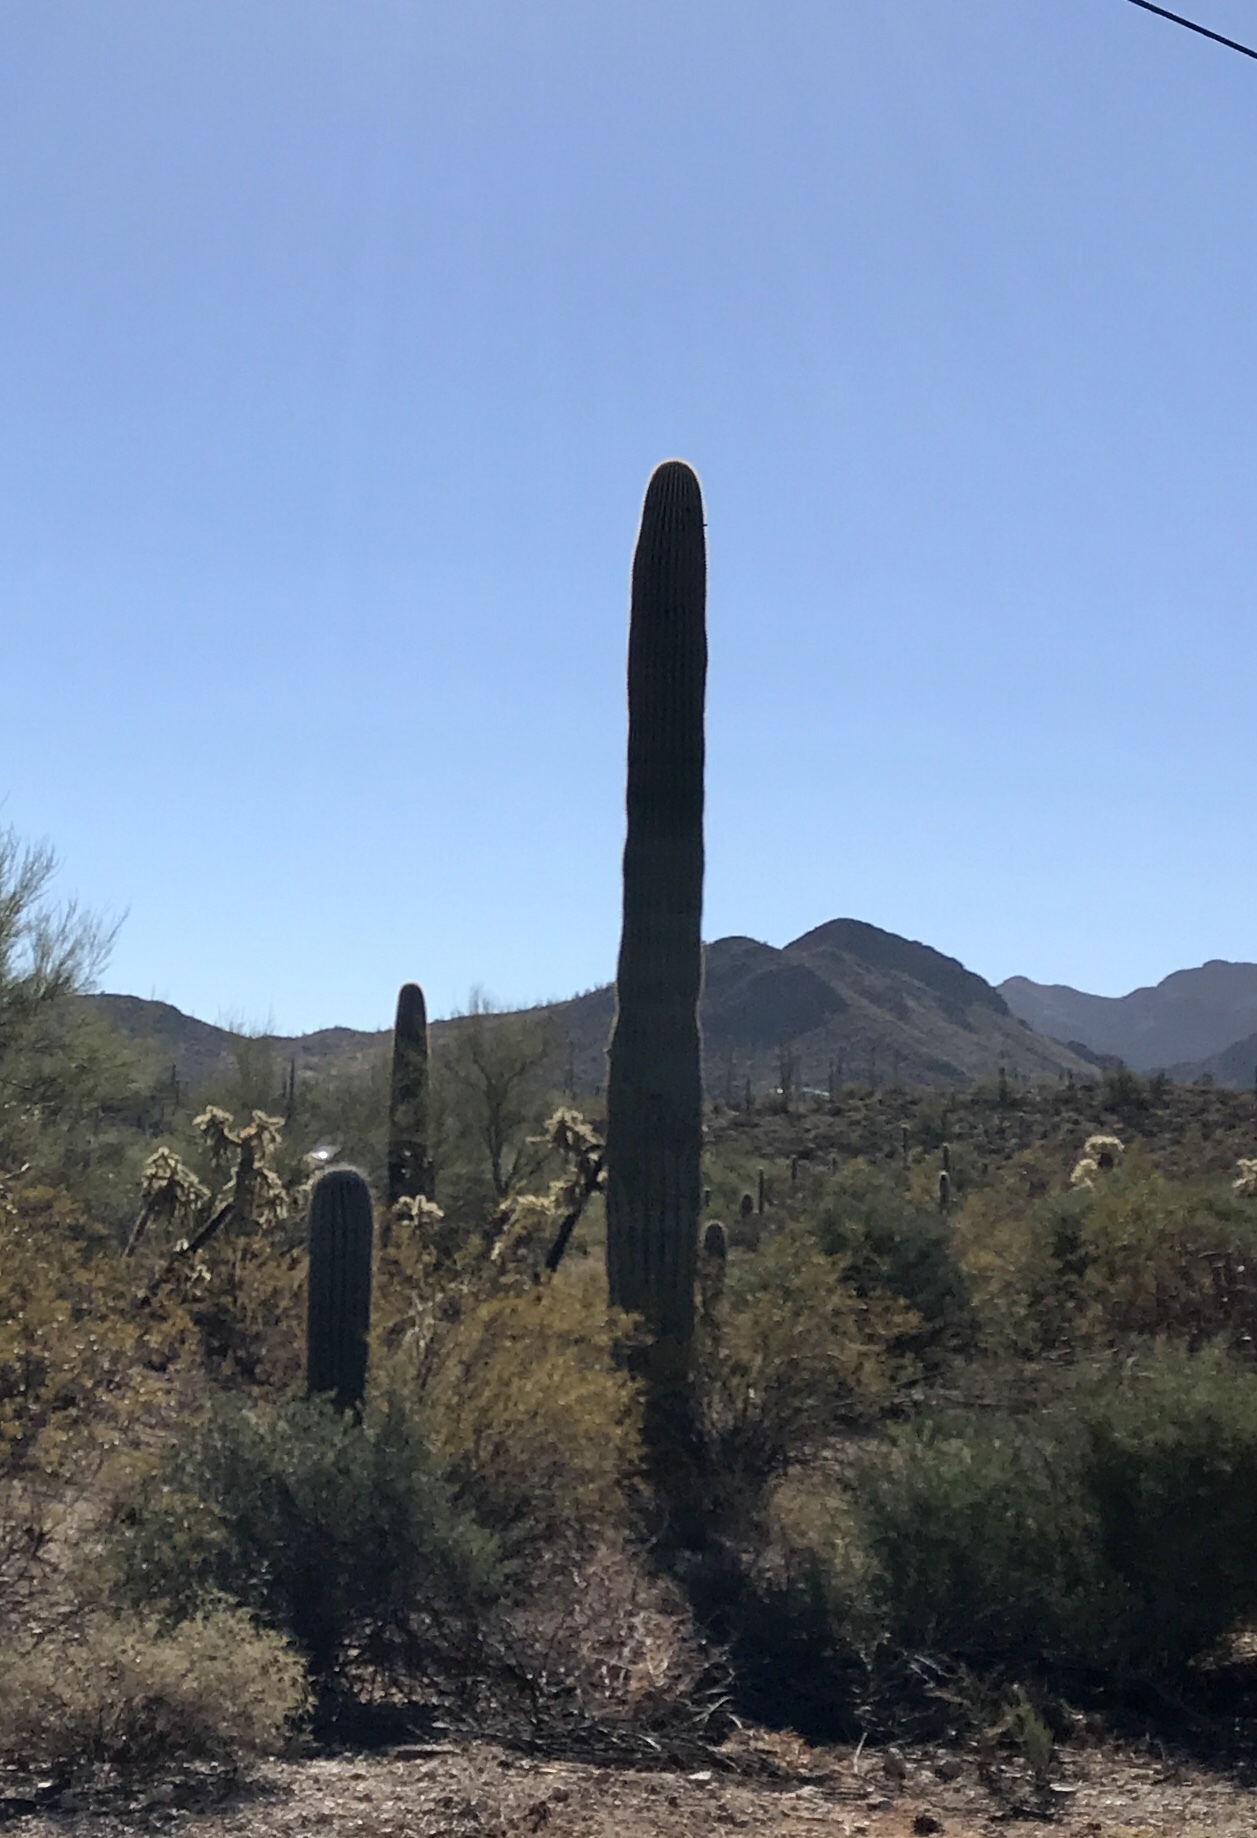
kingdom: Plantae
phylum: Tracheophyta
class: Magnoliopsida
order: Caryophyllales
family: Cactaceae
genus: Carnegiea
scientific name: Carnegiea gigantea
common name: Saguaro
